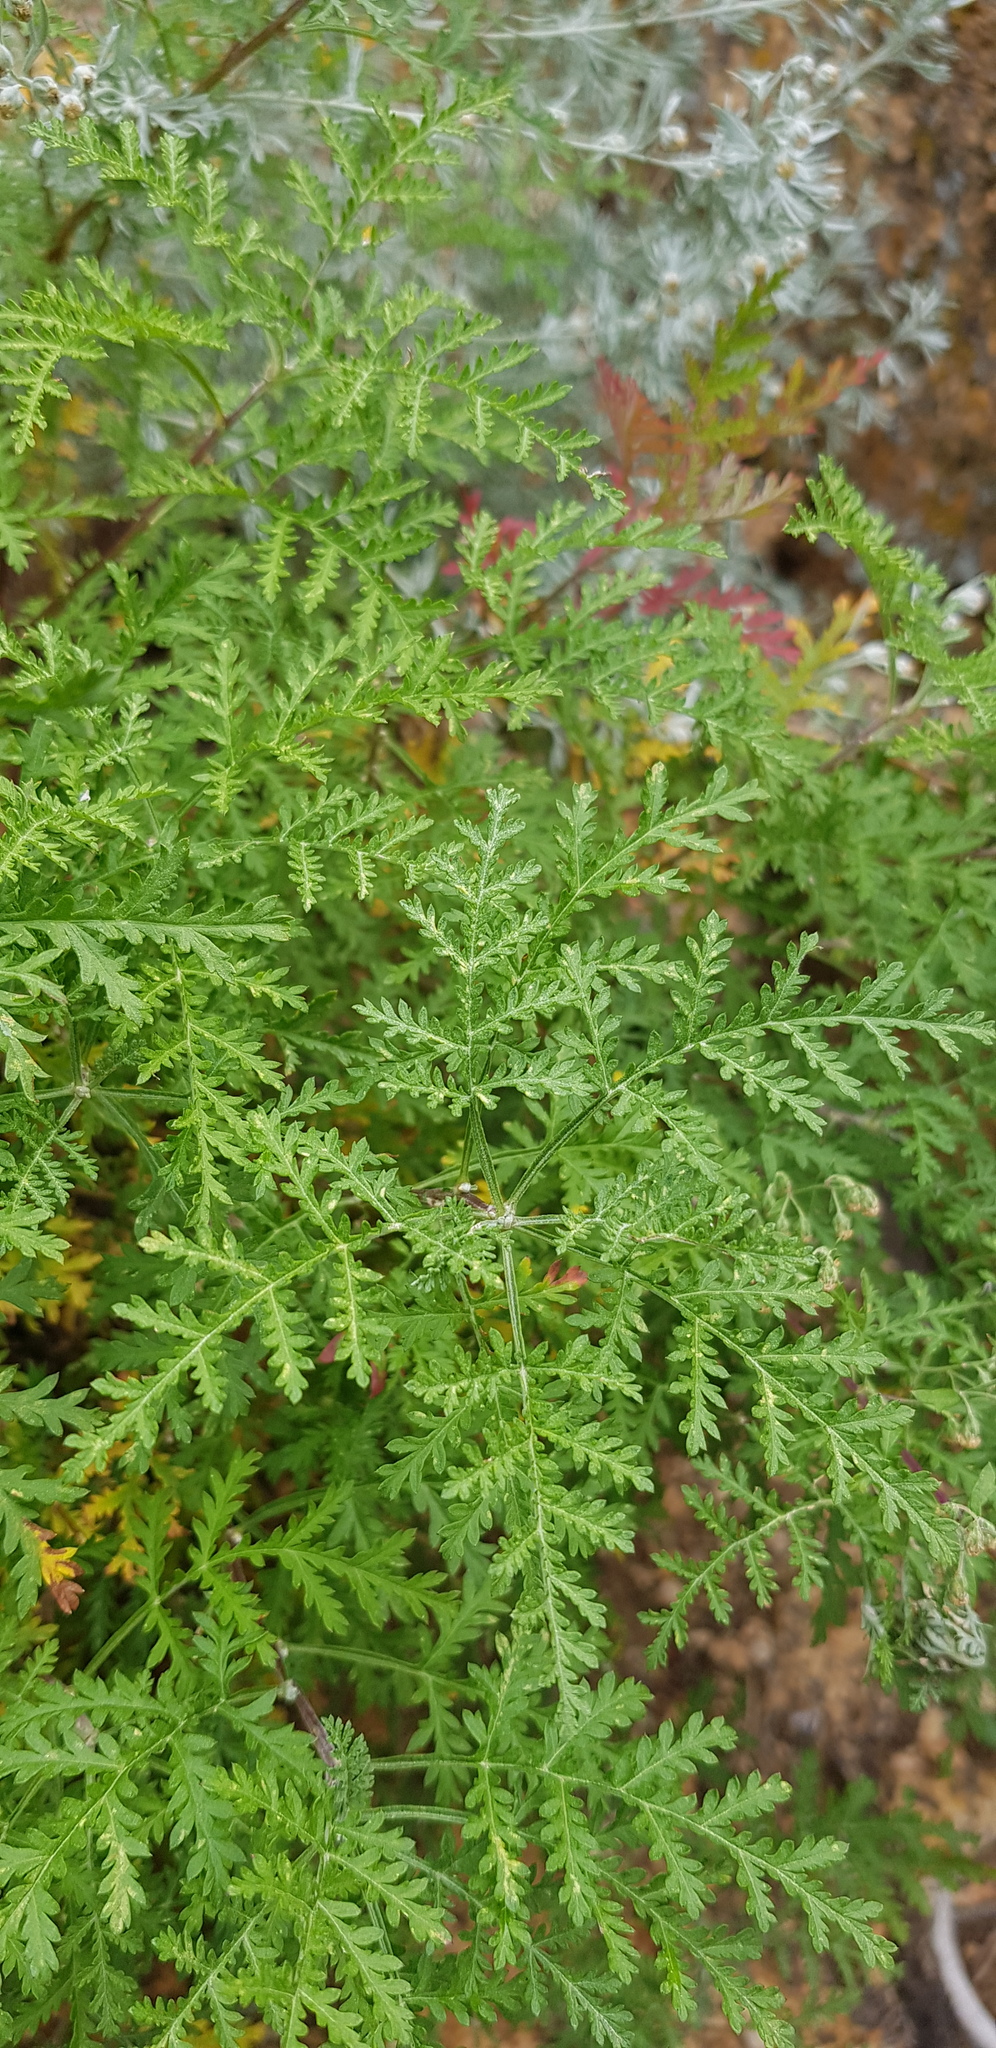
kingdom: Plantae
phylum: Tracheophyta
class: Magnoliopsida
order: Asterales
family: Asteraceae
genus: Artemisia
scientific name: Artemisia gmelinii
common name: Gmelin's wormwood
